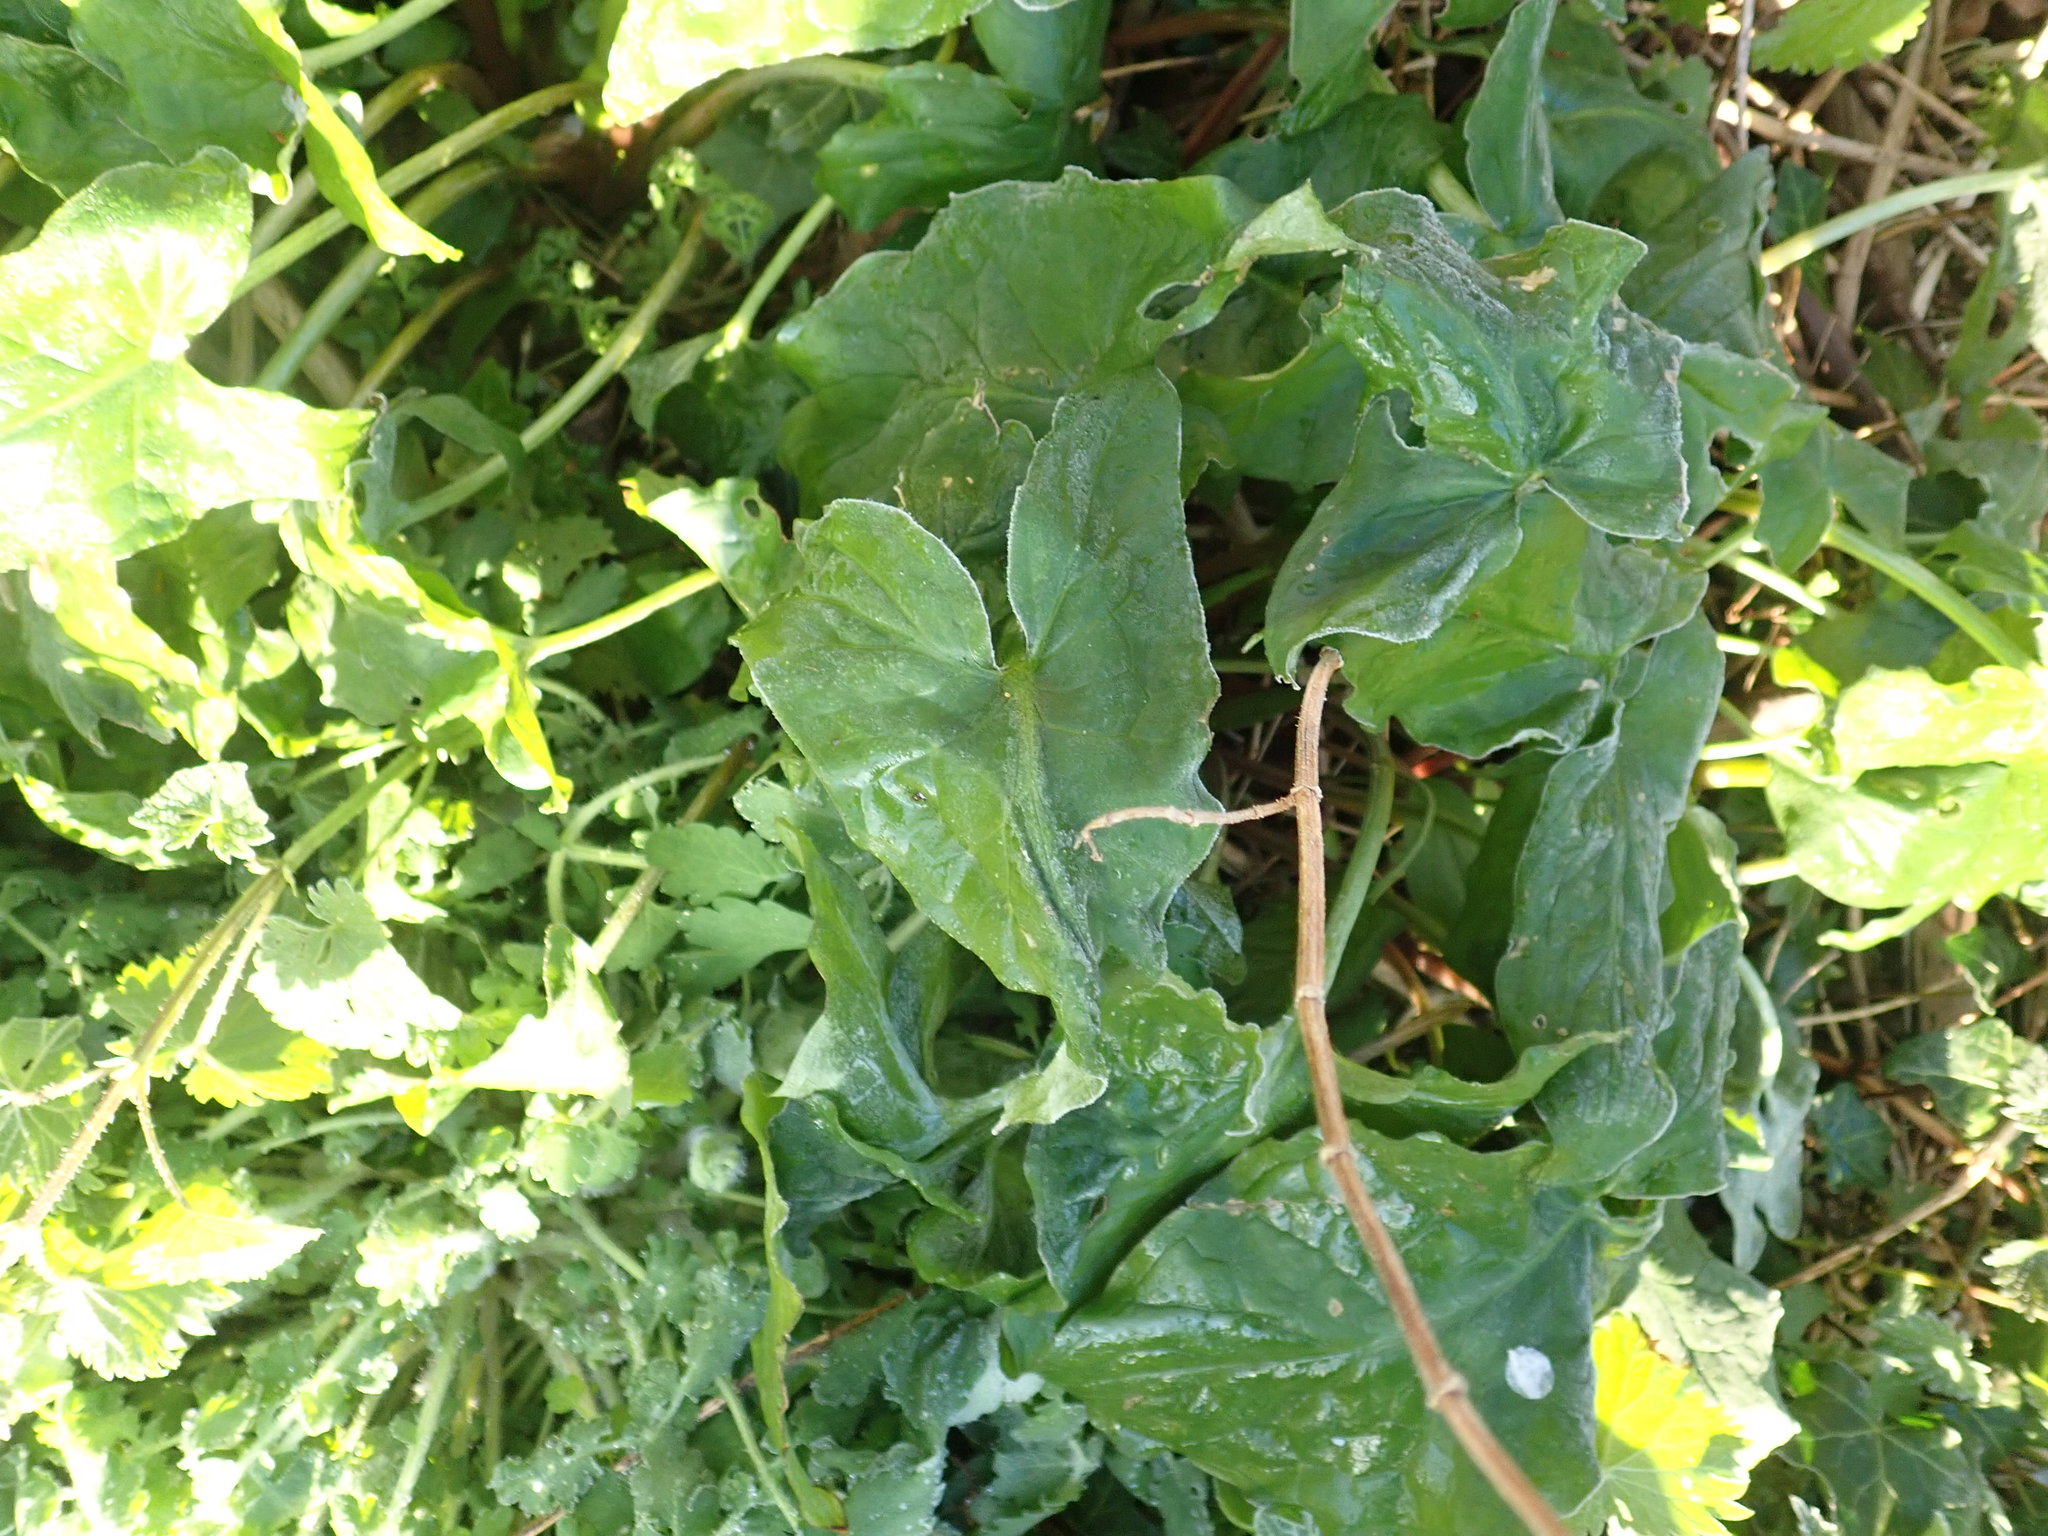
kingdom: Plantae
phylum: Tracheophyta
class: Liliopsida
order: Alismatales
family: Araceae
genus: Arum
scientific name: Arum maculatum
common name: Lords-and-ladies
